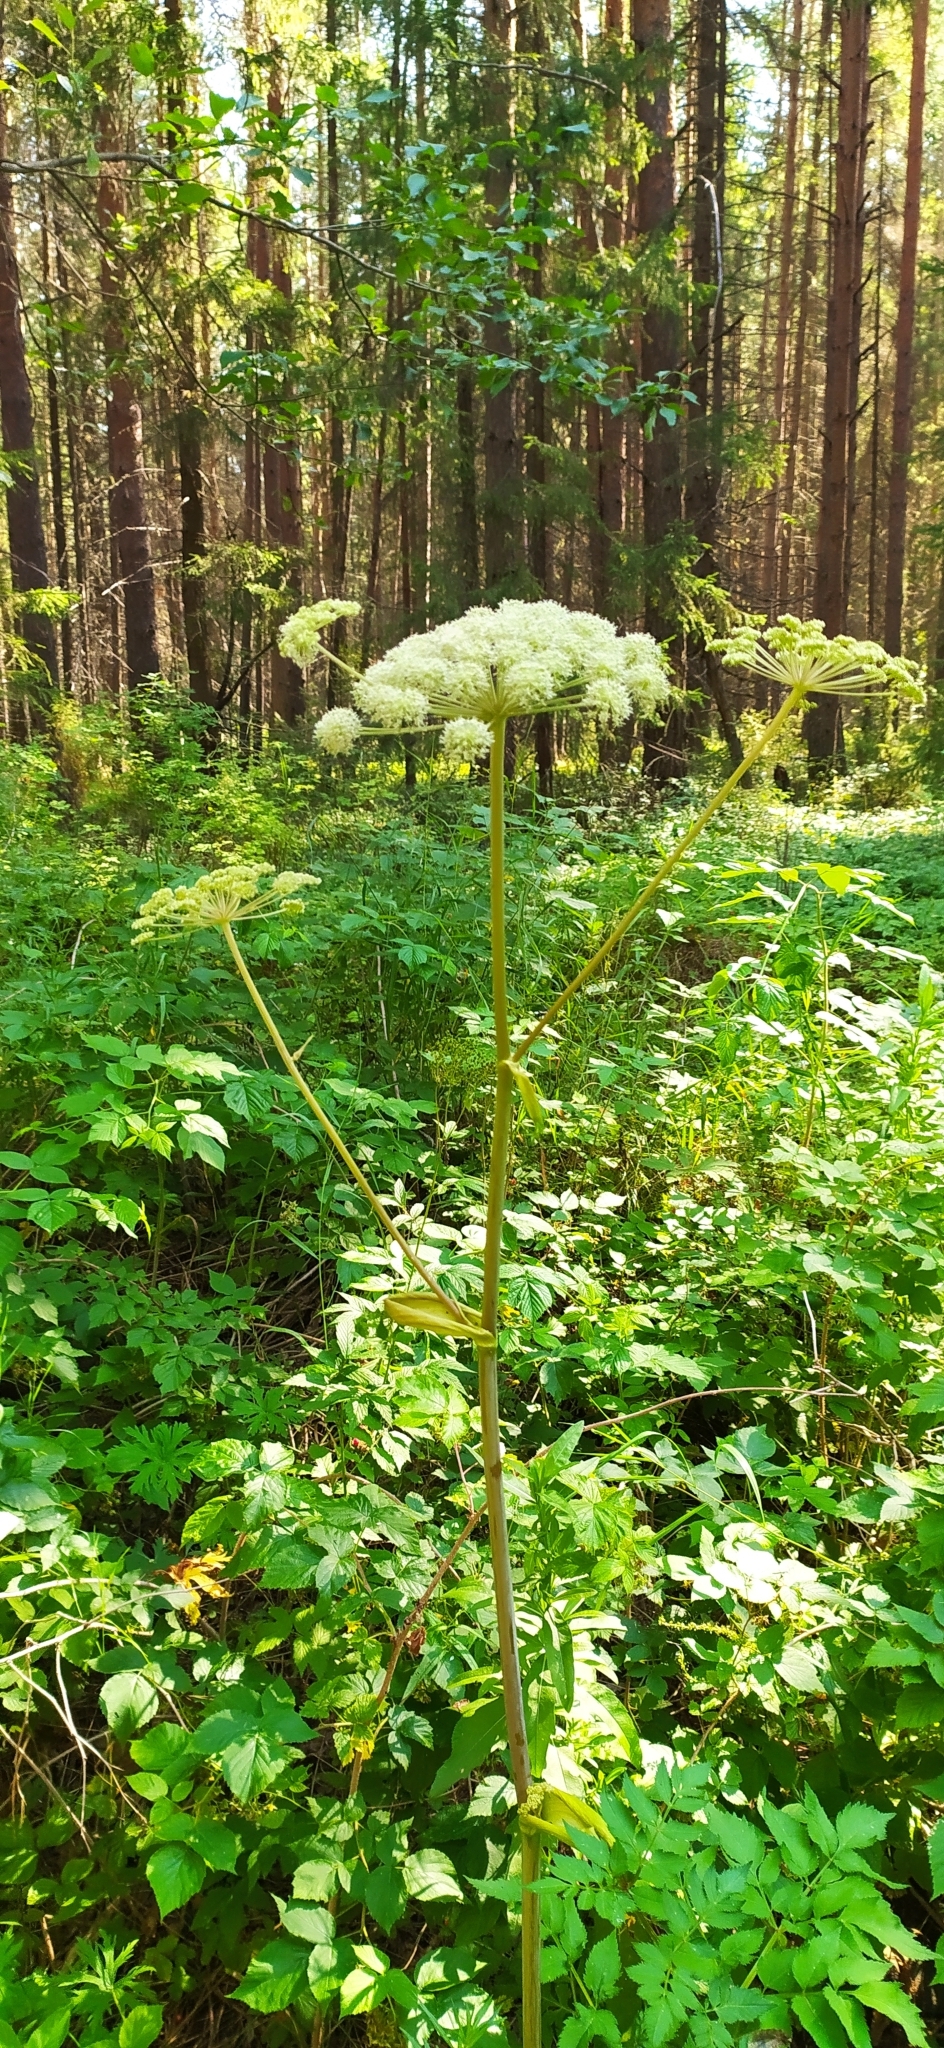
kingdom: Plantae
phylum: Tracheophyta
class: Magnoliopsida
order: Apiales
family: Apiaceae
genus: Angelica
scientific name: Angelica sylvestris
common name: Wild angelica
